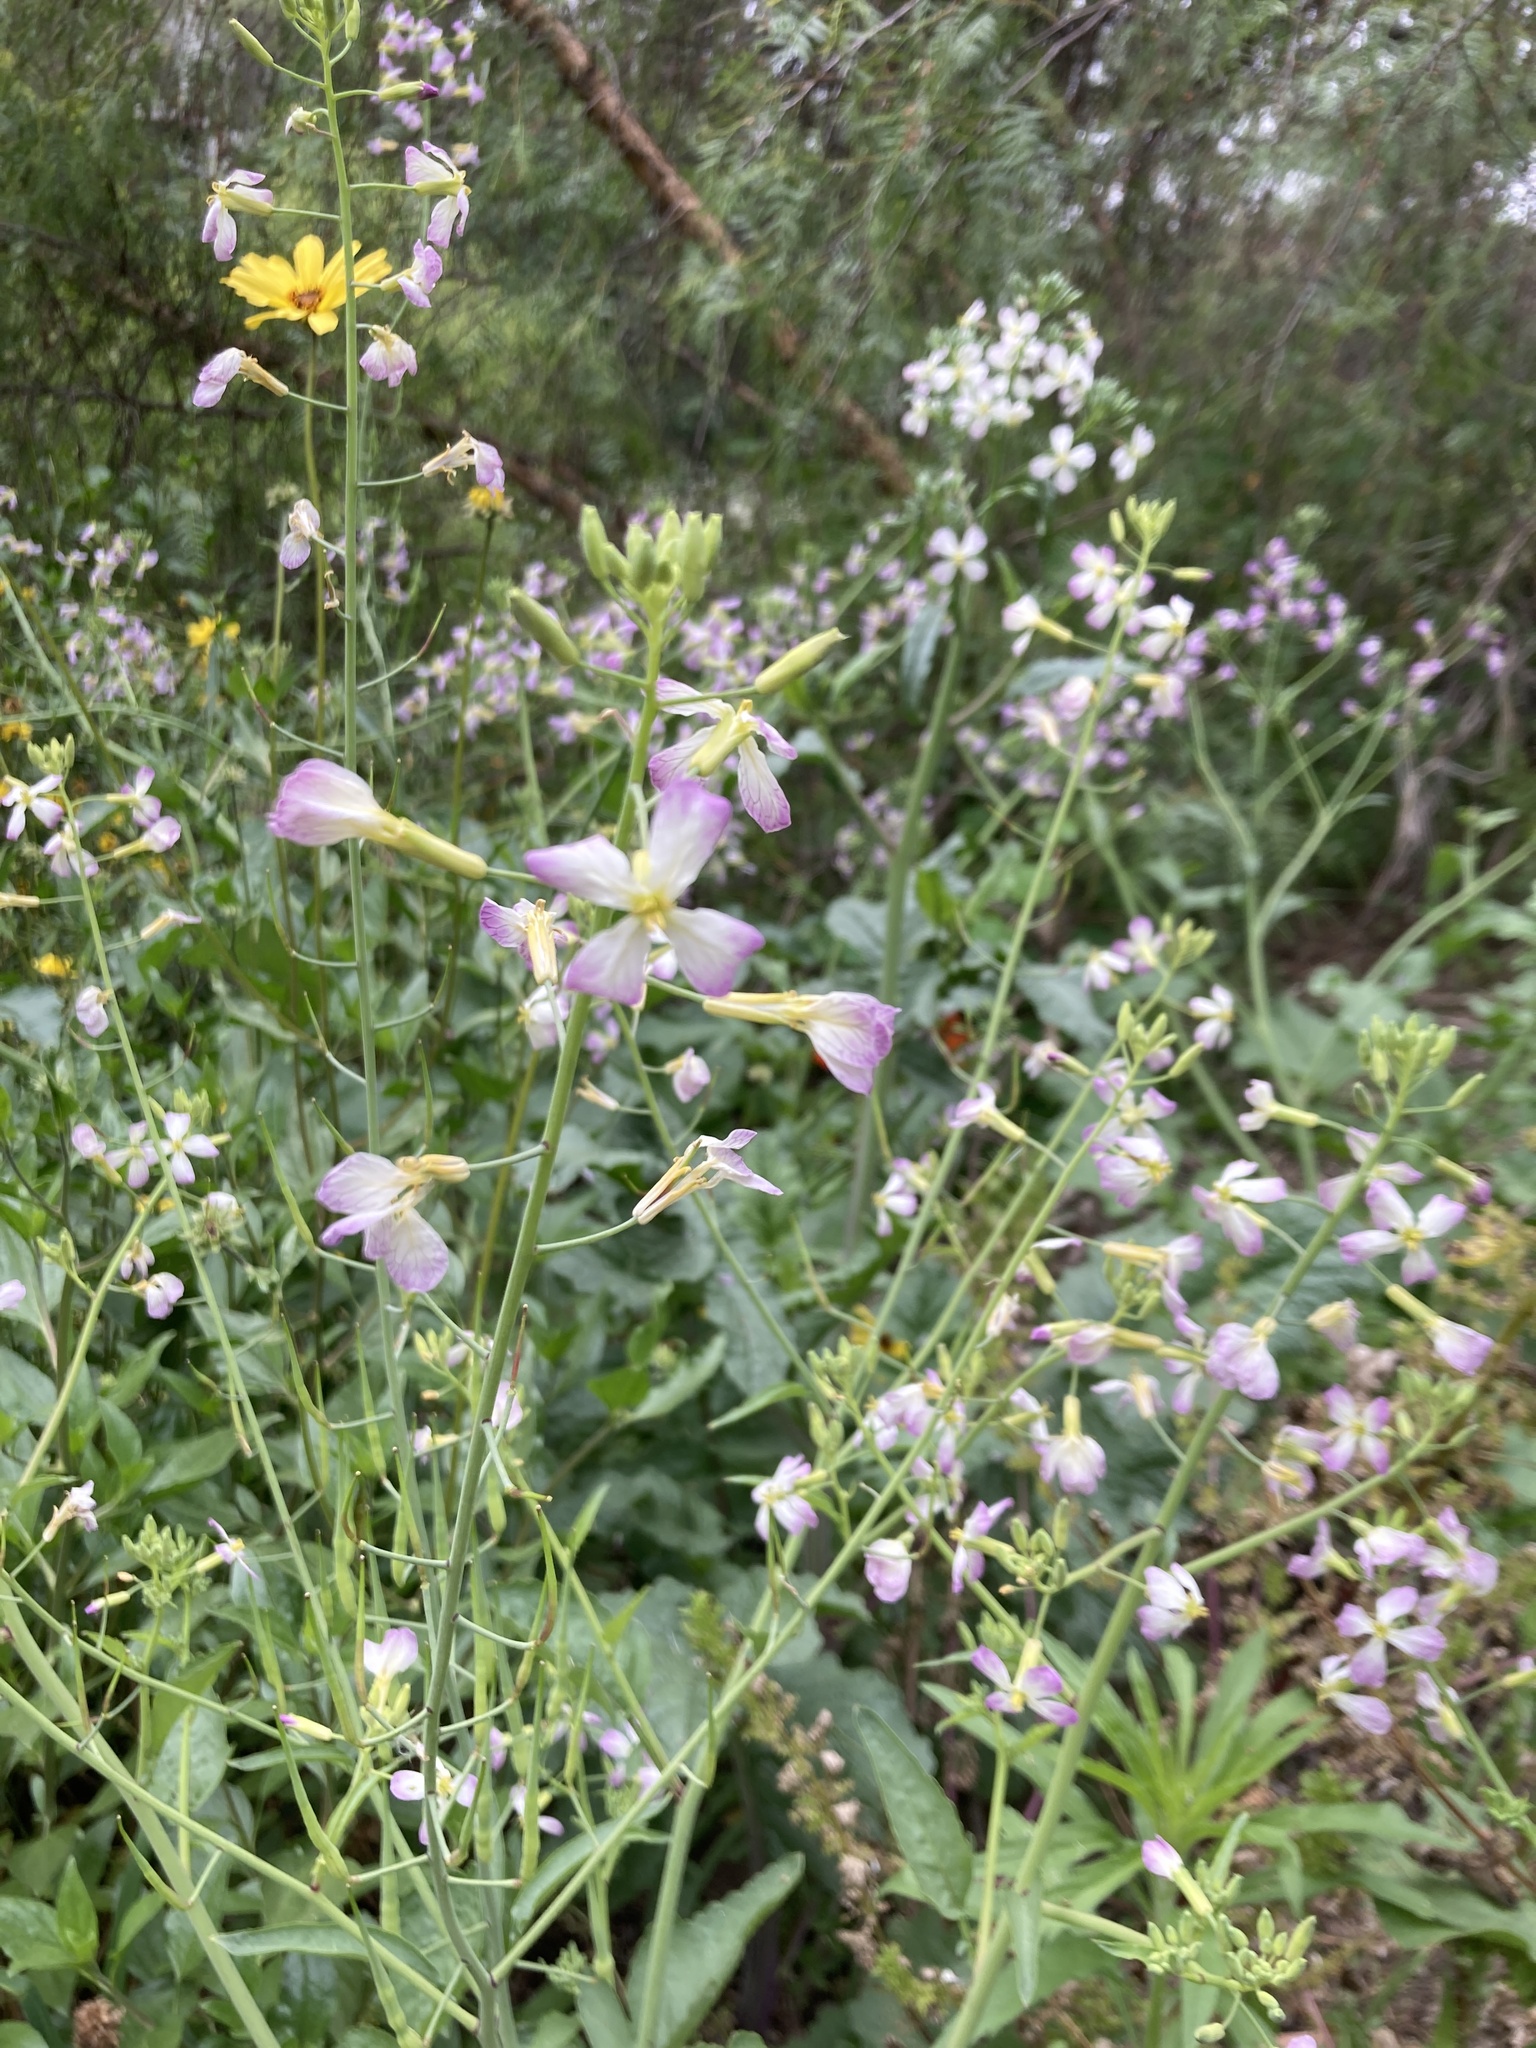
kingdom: Plantae
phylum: Tracheophyta
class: Magnoliopsida
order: Brassicales
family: Brassicaceae
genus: Raphanus
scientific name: Raphanus sativus
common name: Cultivated radish
